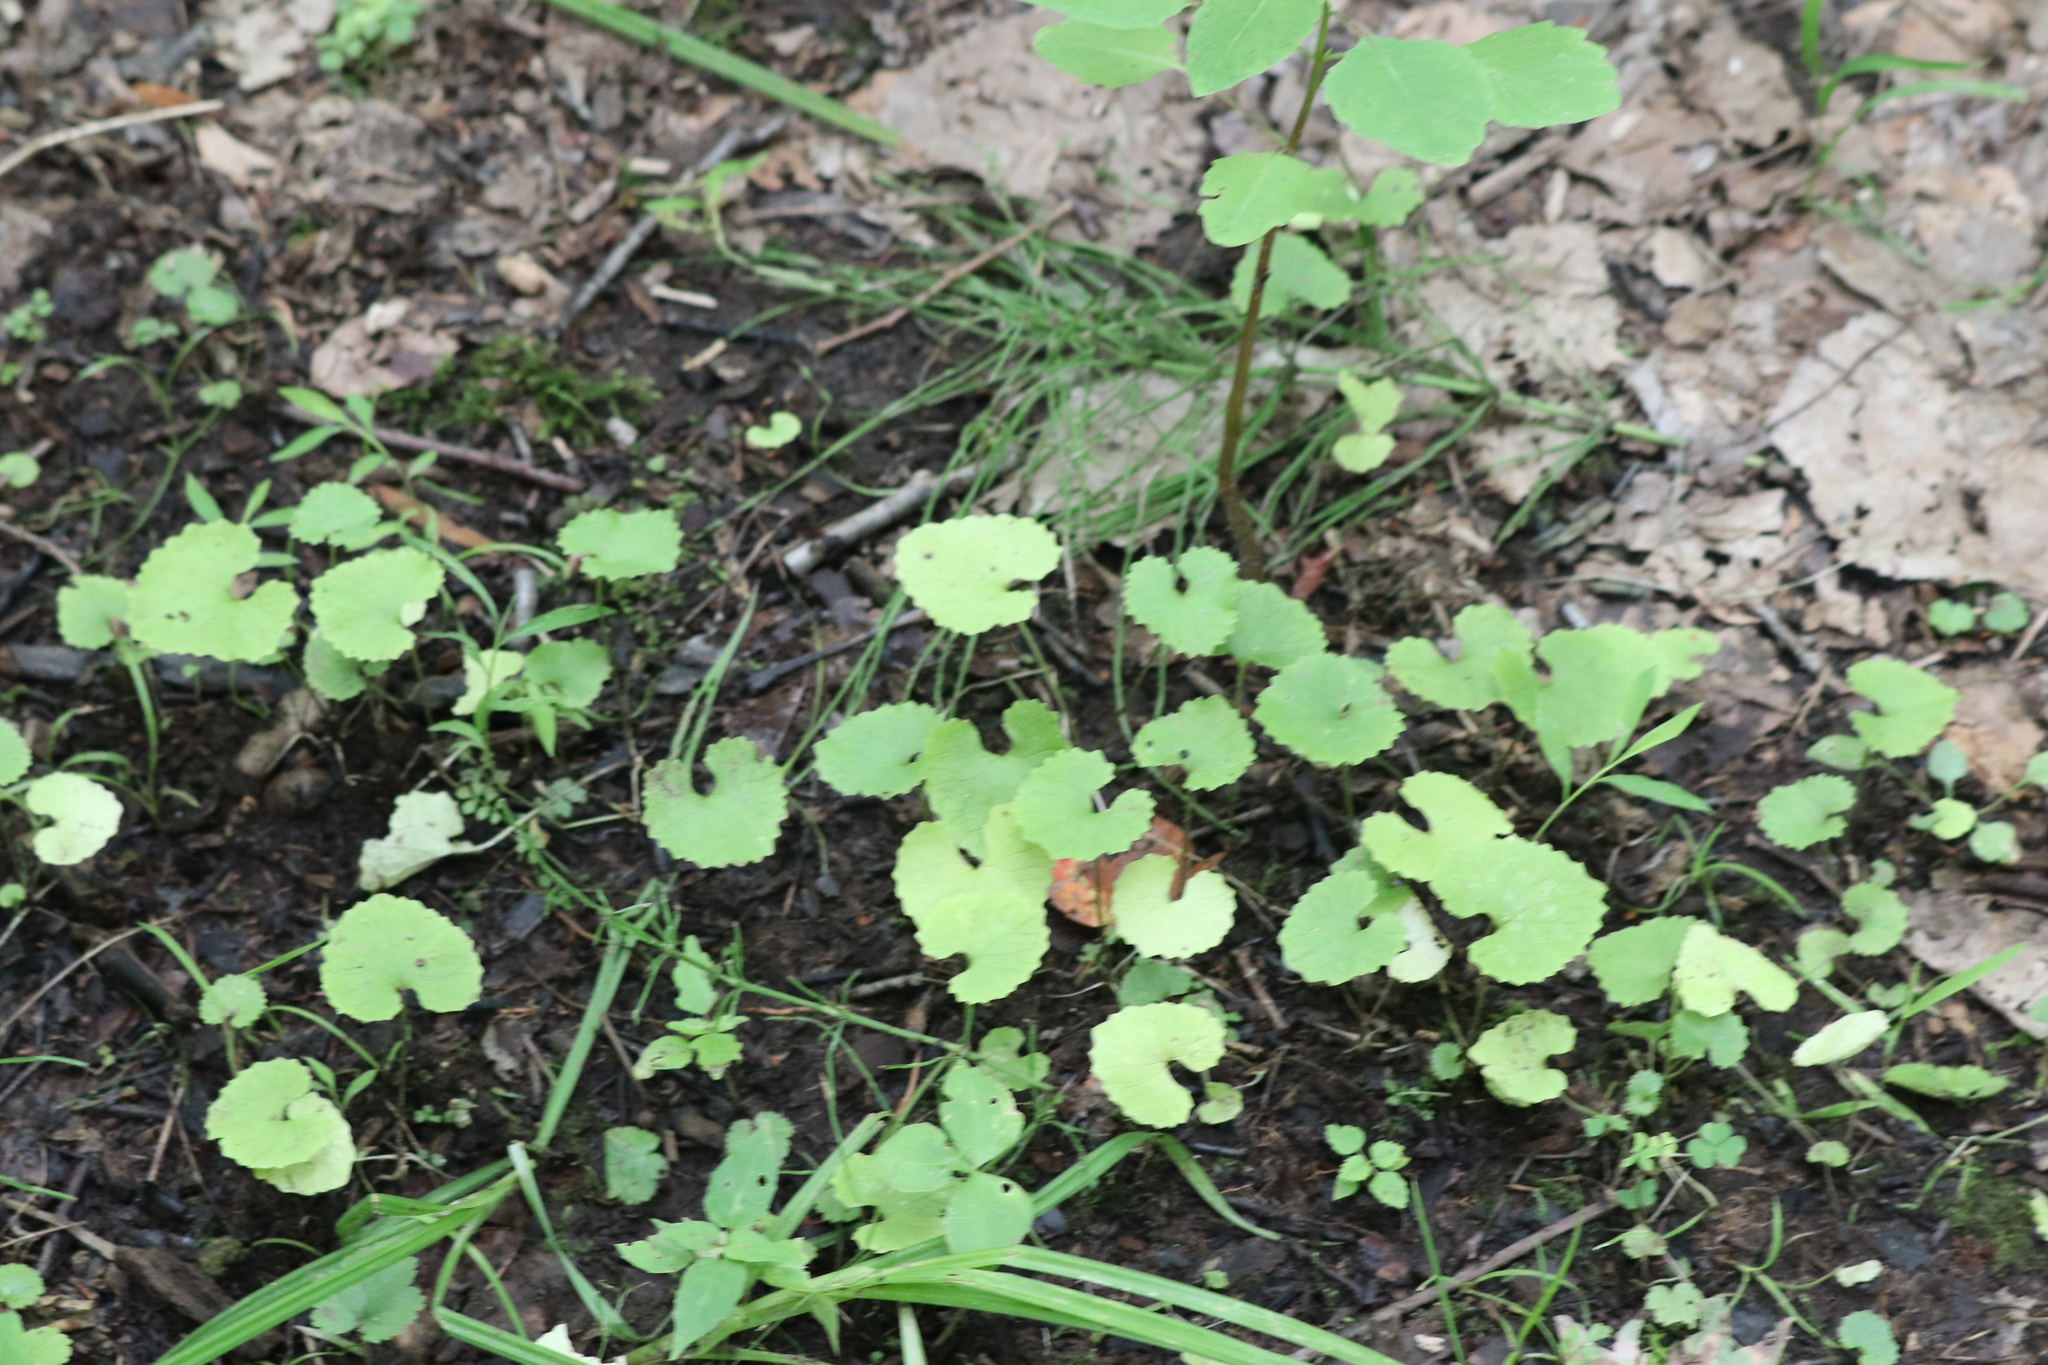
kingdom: Plantae
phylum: Tracheophyta
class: Magnoliopsida
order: Brassicales
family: Brassicaceae
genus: Alliaria
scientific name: Alliaria petiolata
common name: Garlic mustard
